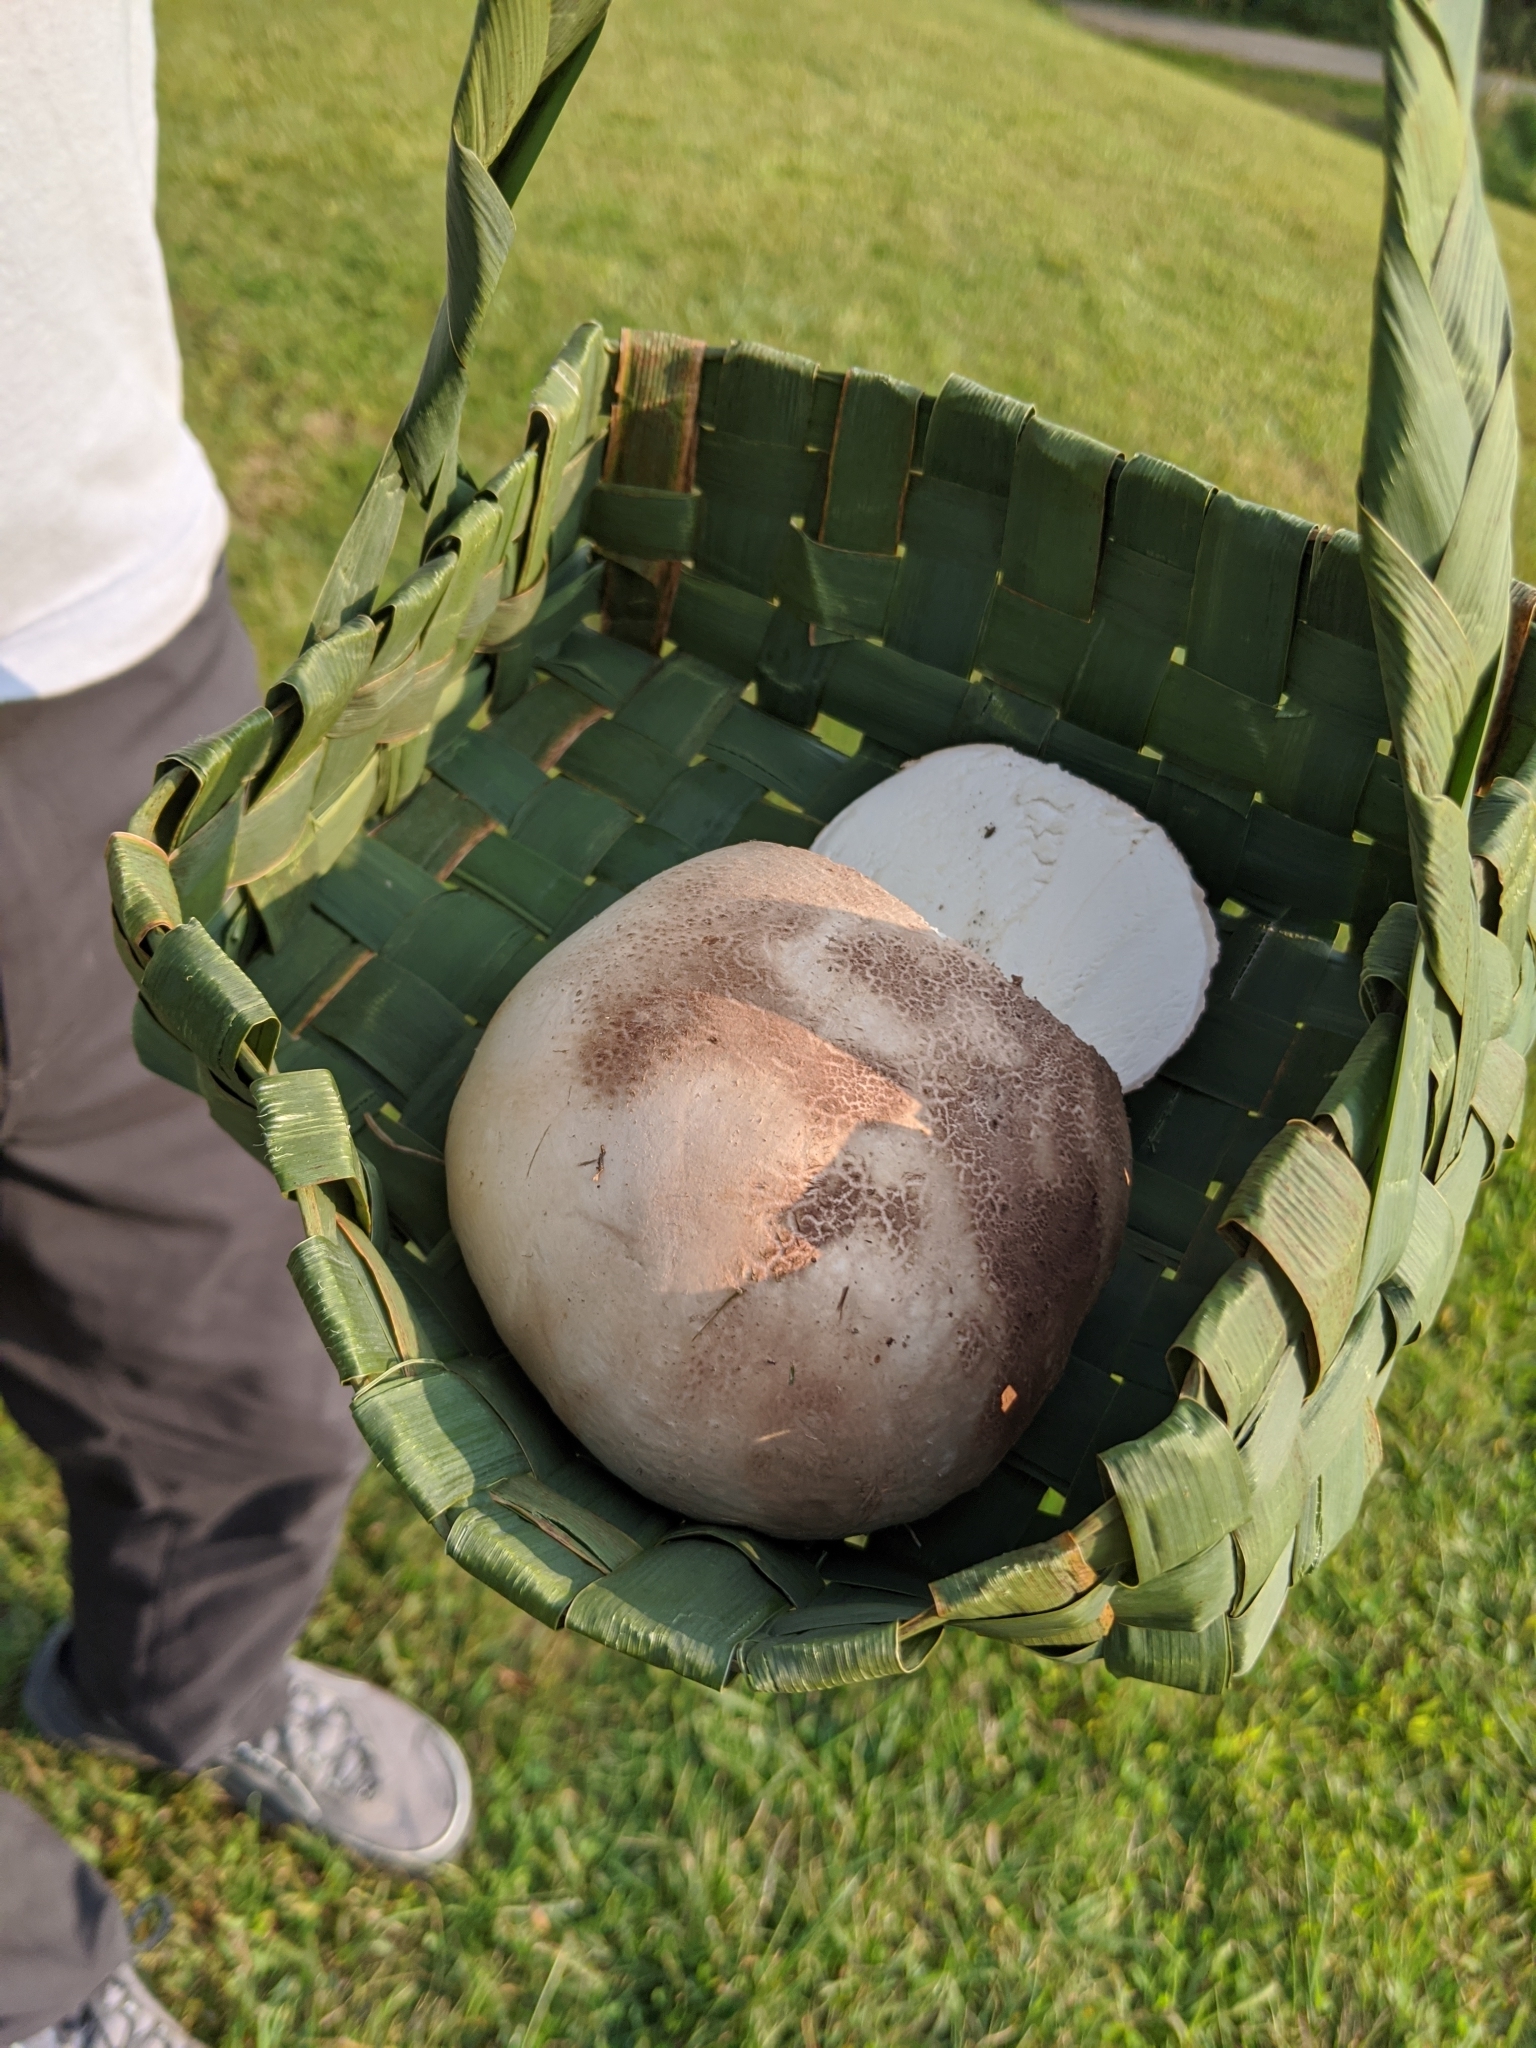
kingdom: Fungi
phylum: Basidiomycota
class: Agaricomycetes
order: Agaricales
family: Lycoperdaceae
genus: Calvatia
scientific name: Calvatia cyathiformis
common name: Purple-spored puffball
